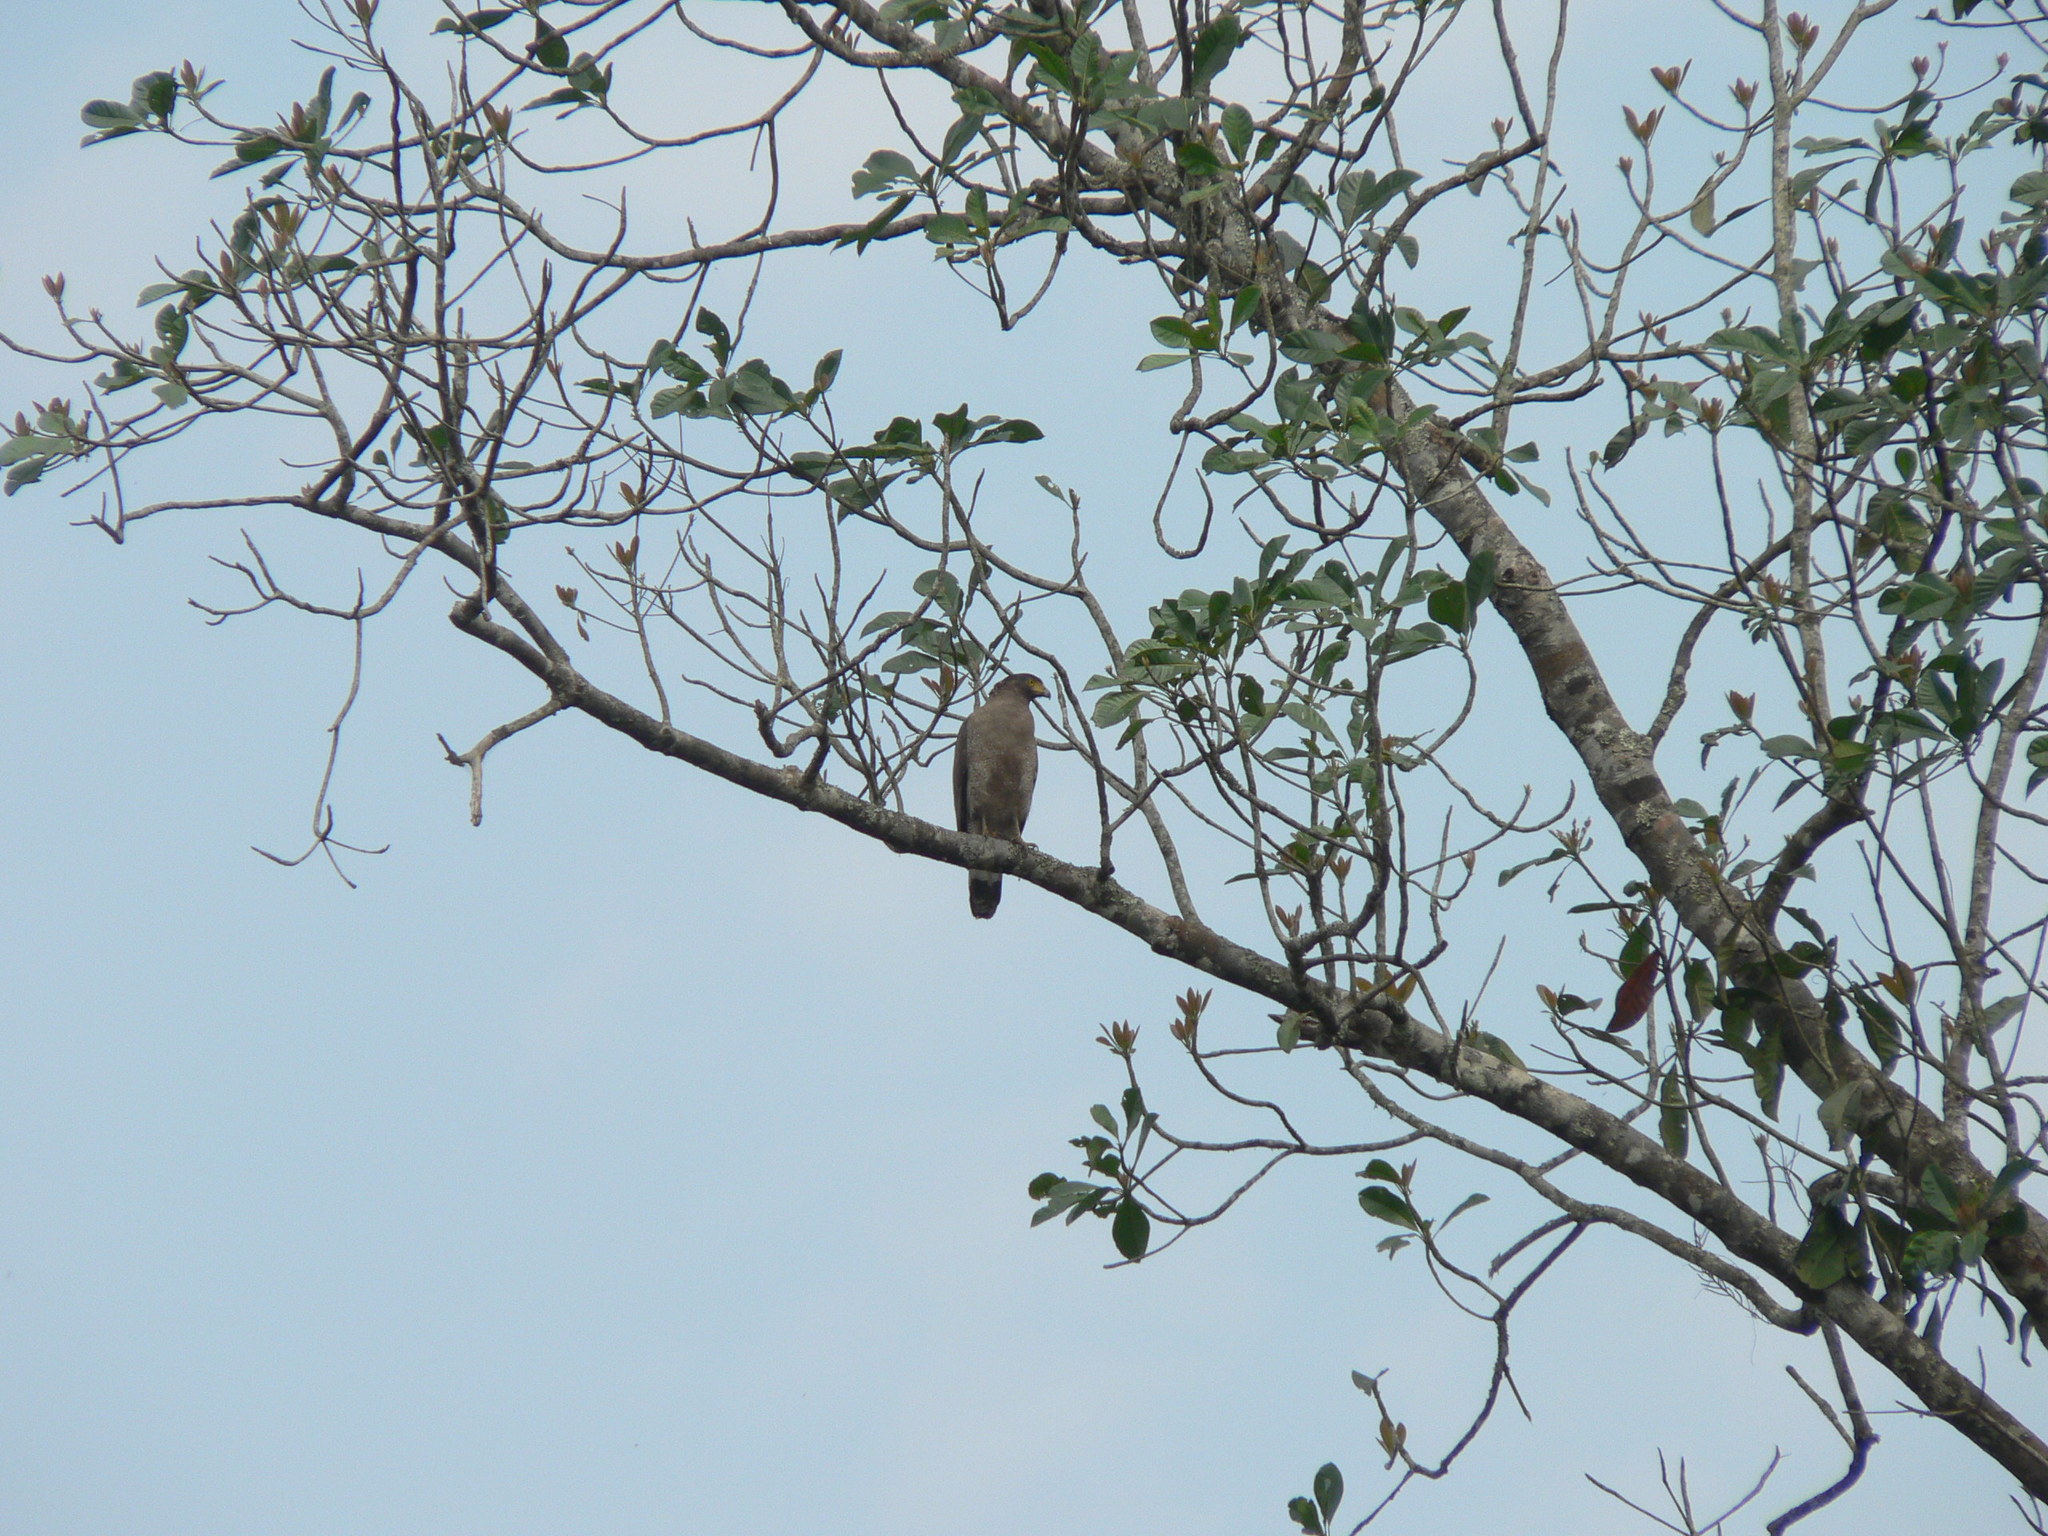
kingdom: Animalia
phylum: Chordata
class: Aves
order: Accipitriformes
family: Accipitridae
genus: Spilornis
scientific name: Spilornis cheela
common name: Crested serpent eagle
